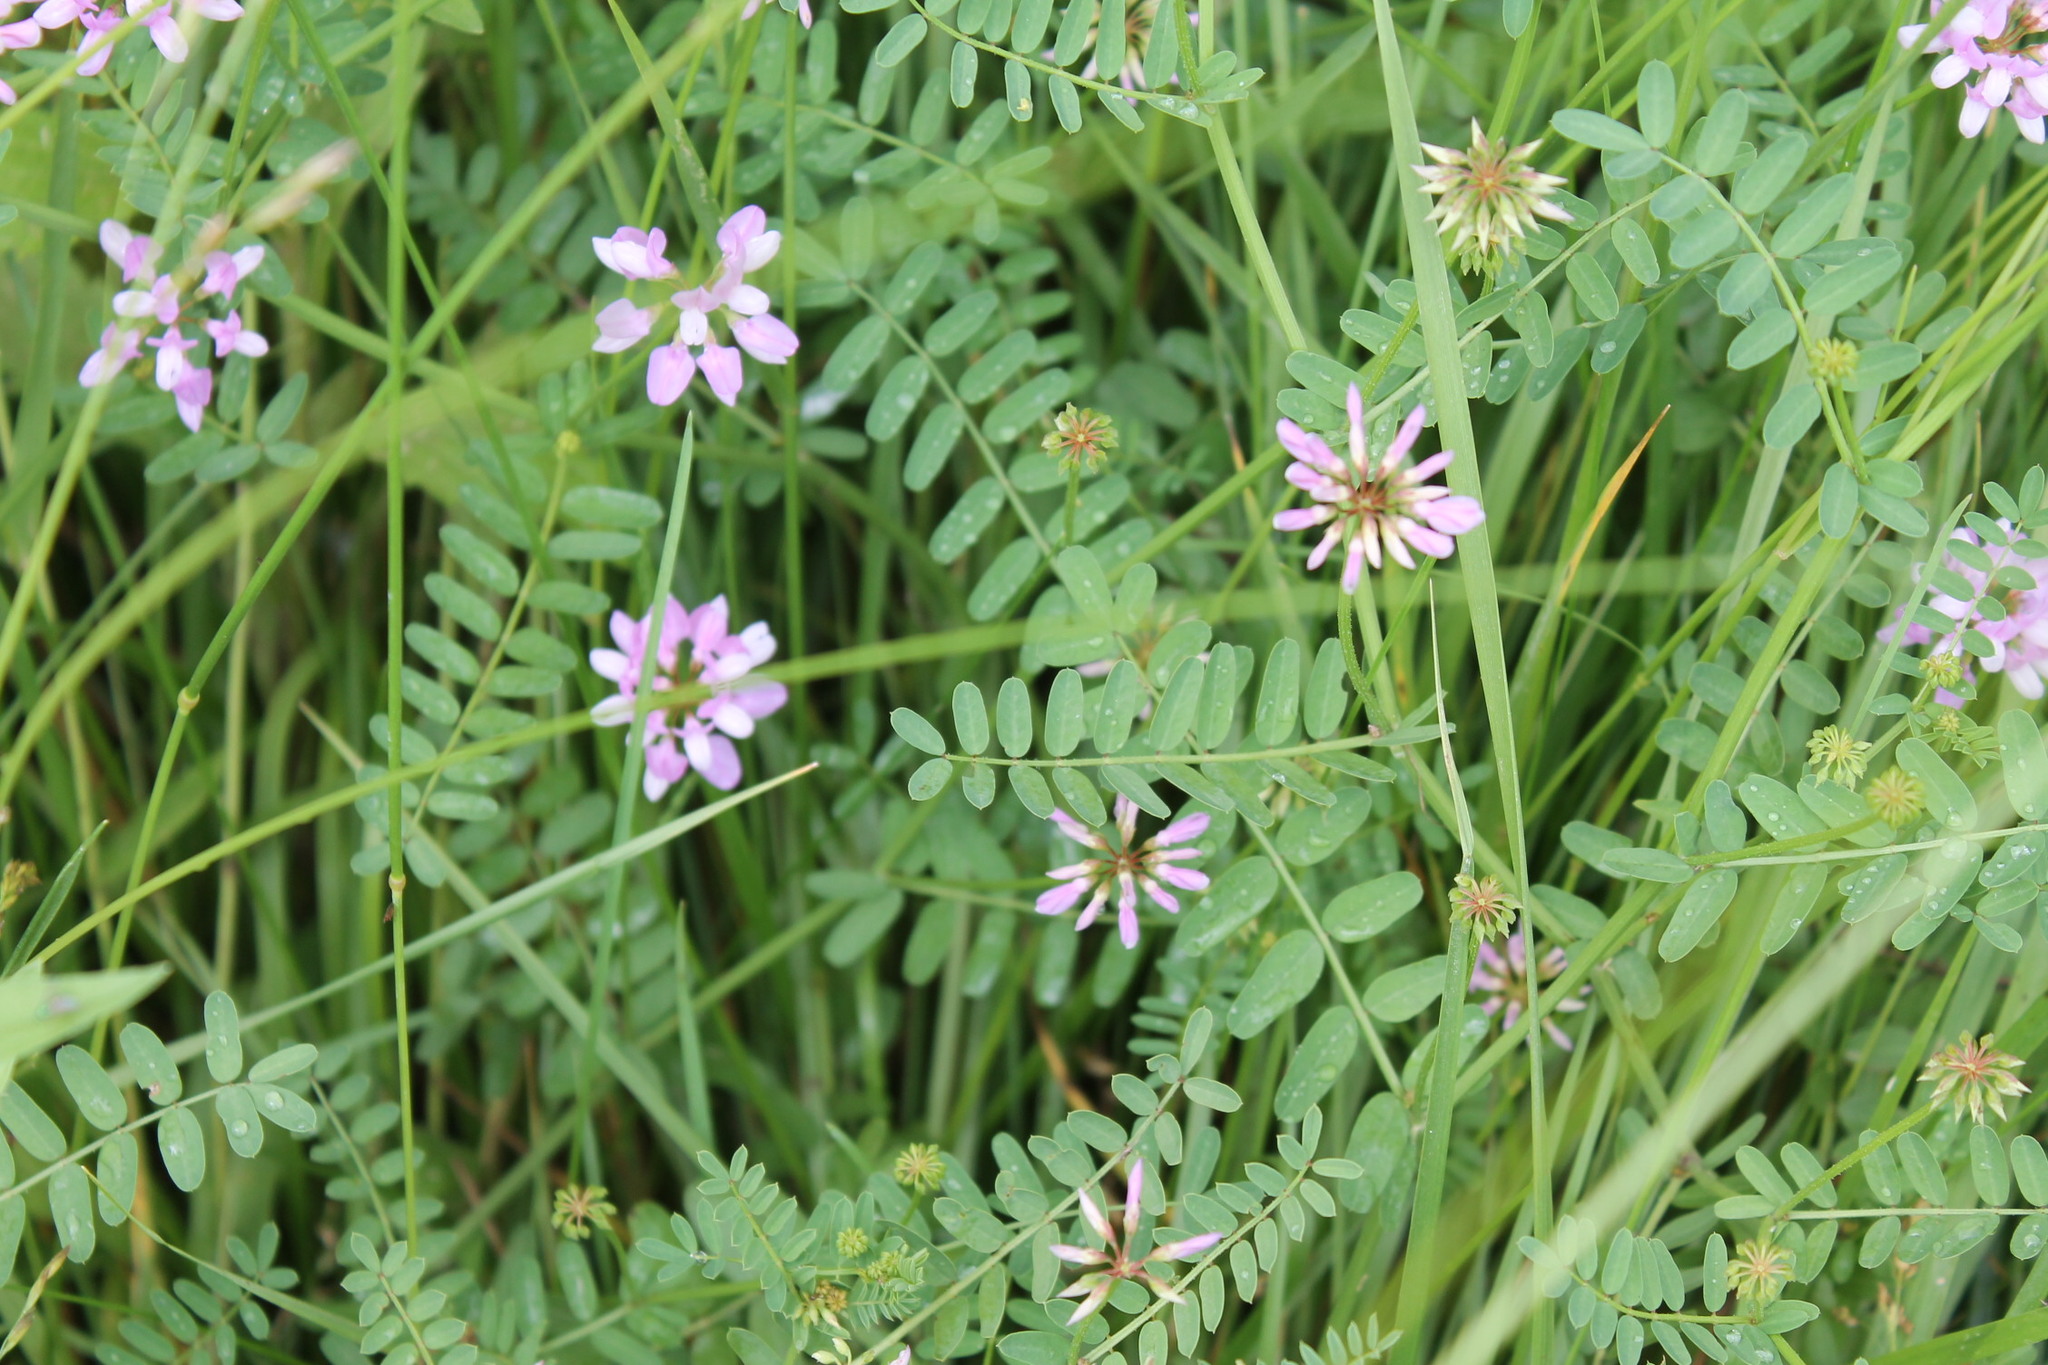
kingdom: Plantae
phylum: Tracheophyta
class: Magnoliopsida
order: Fabales
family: Fabaceae
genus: Coronilla
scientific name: Coronilla varia
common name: Crownvetch
